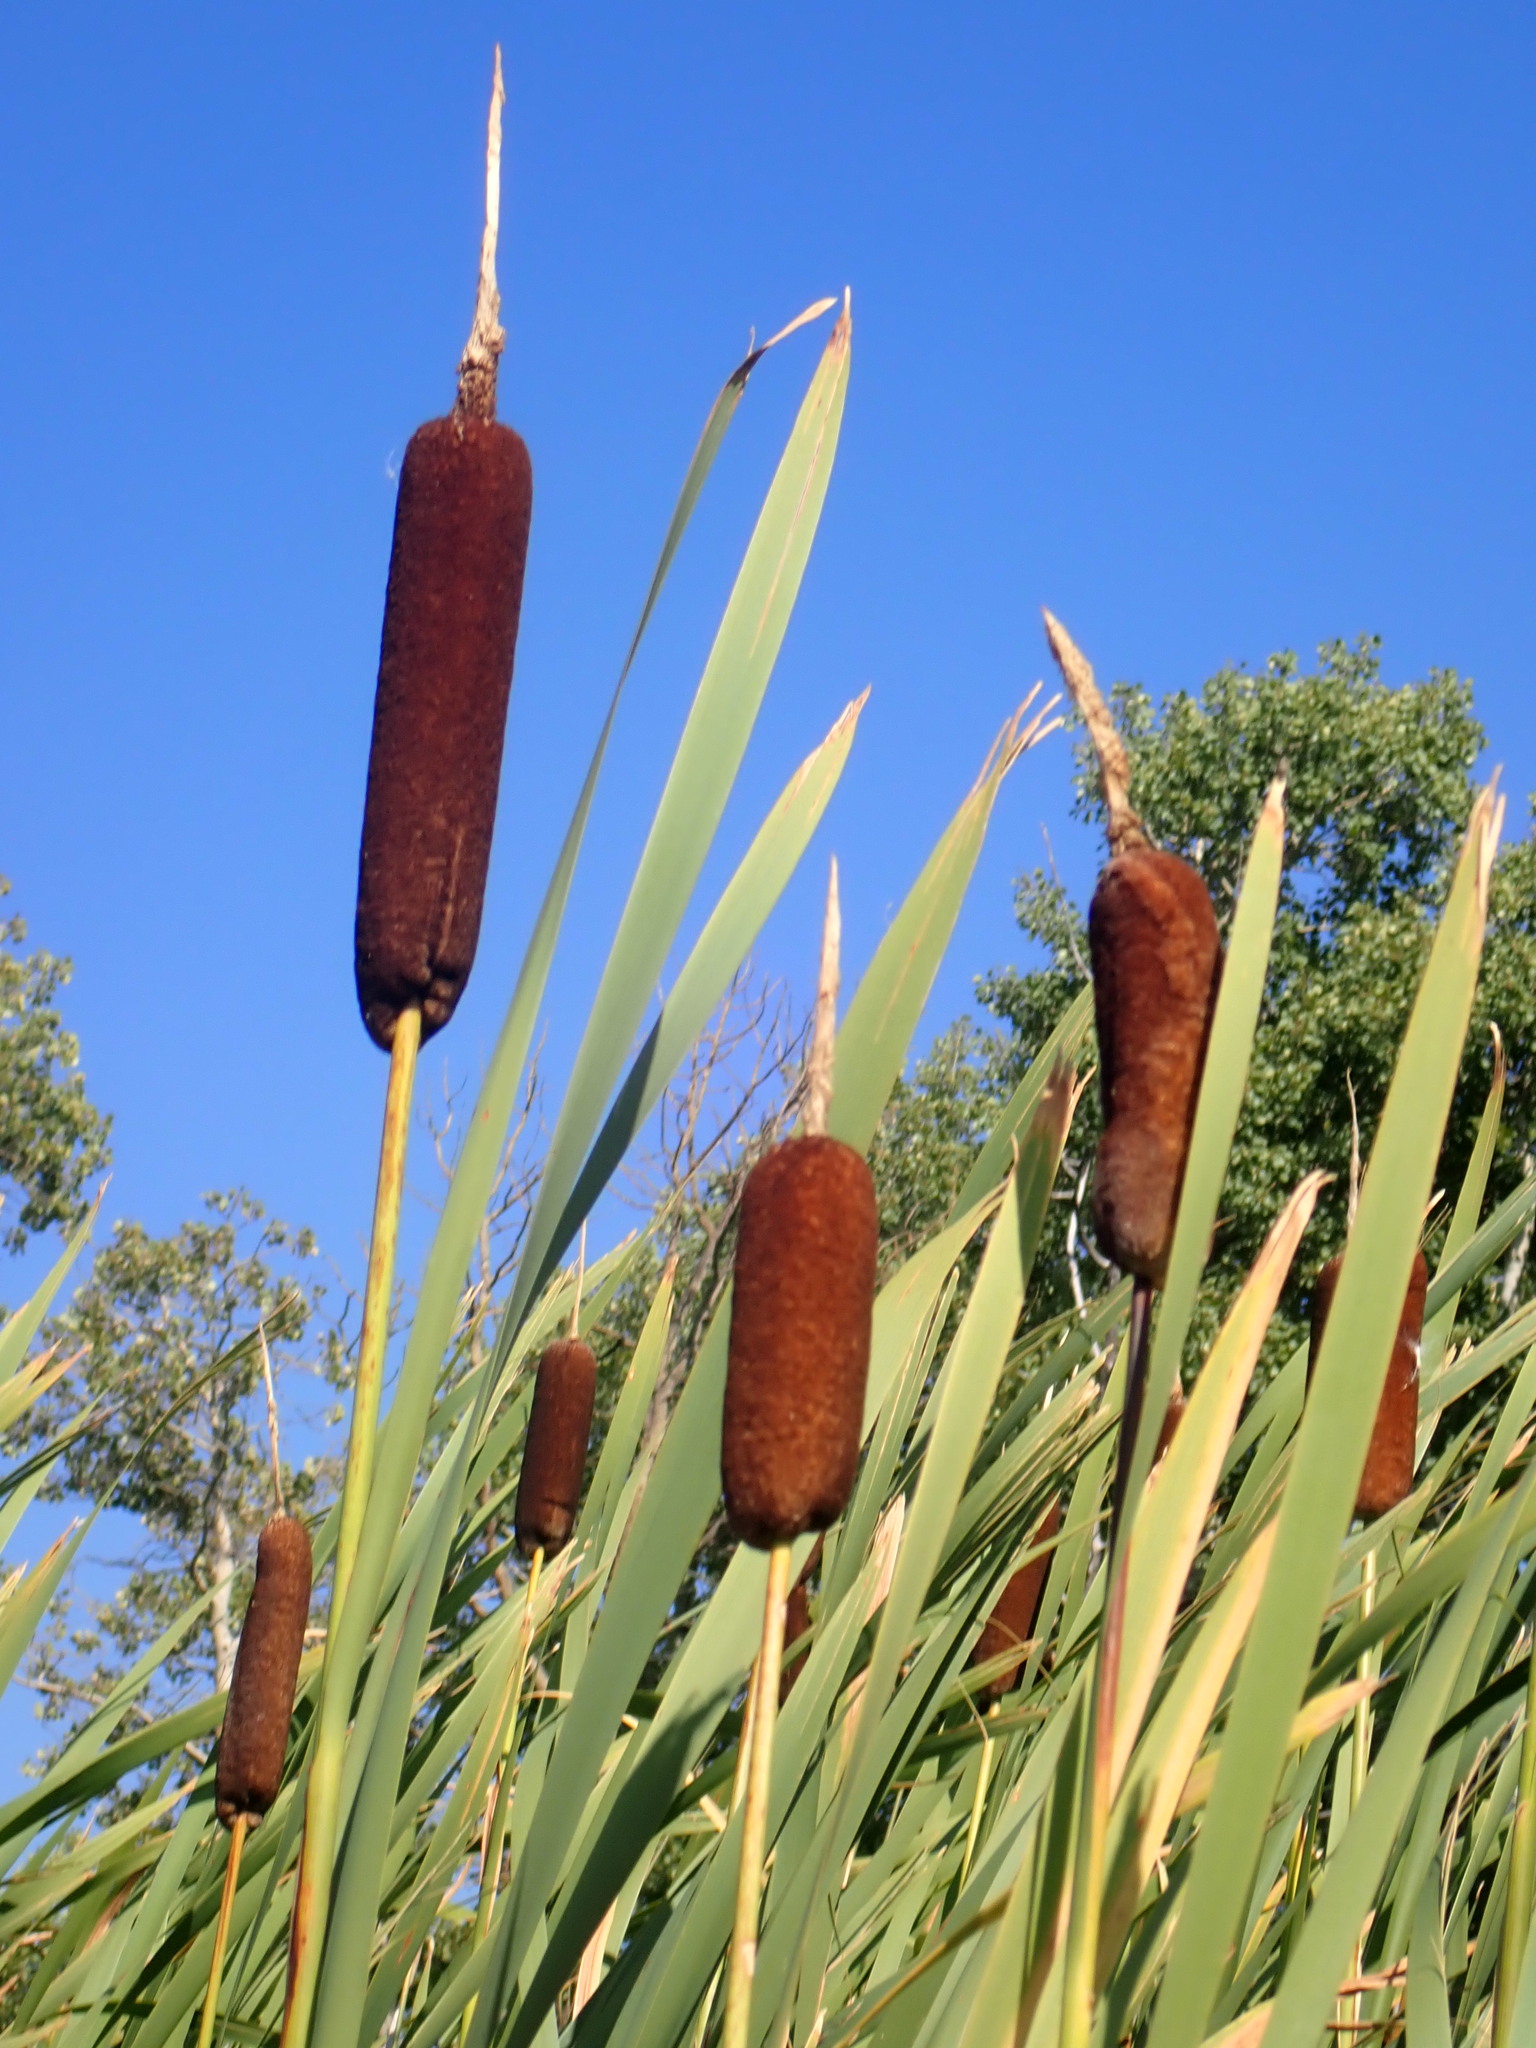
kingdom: Plantae
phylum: Tracheophyta
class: Liliopsida
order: Poales
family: Typhaceae
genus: Typha
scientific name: Typha latifolia
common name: Broadleaf cattail
